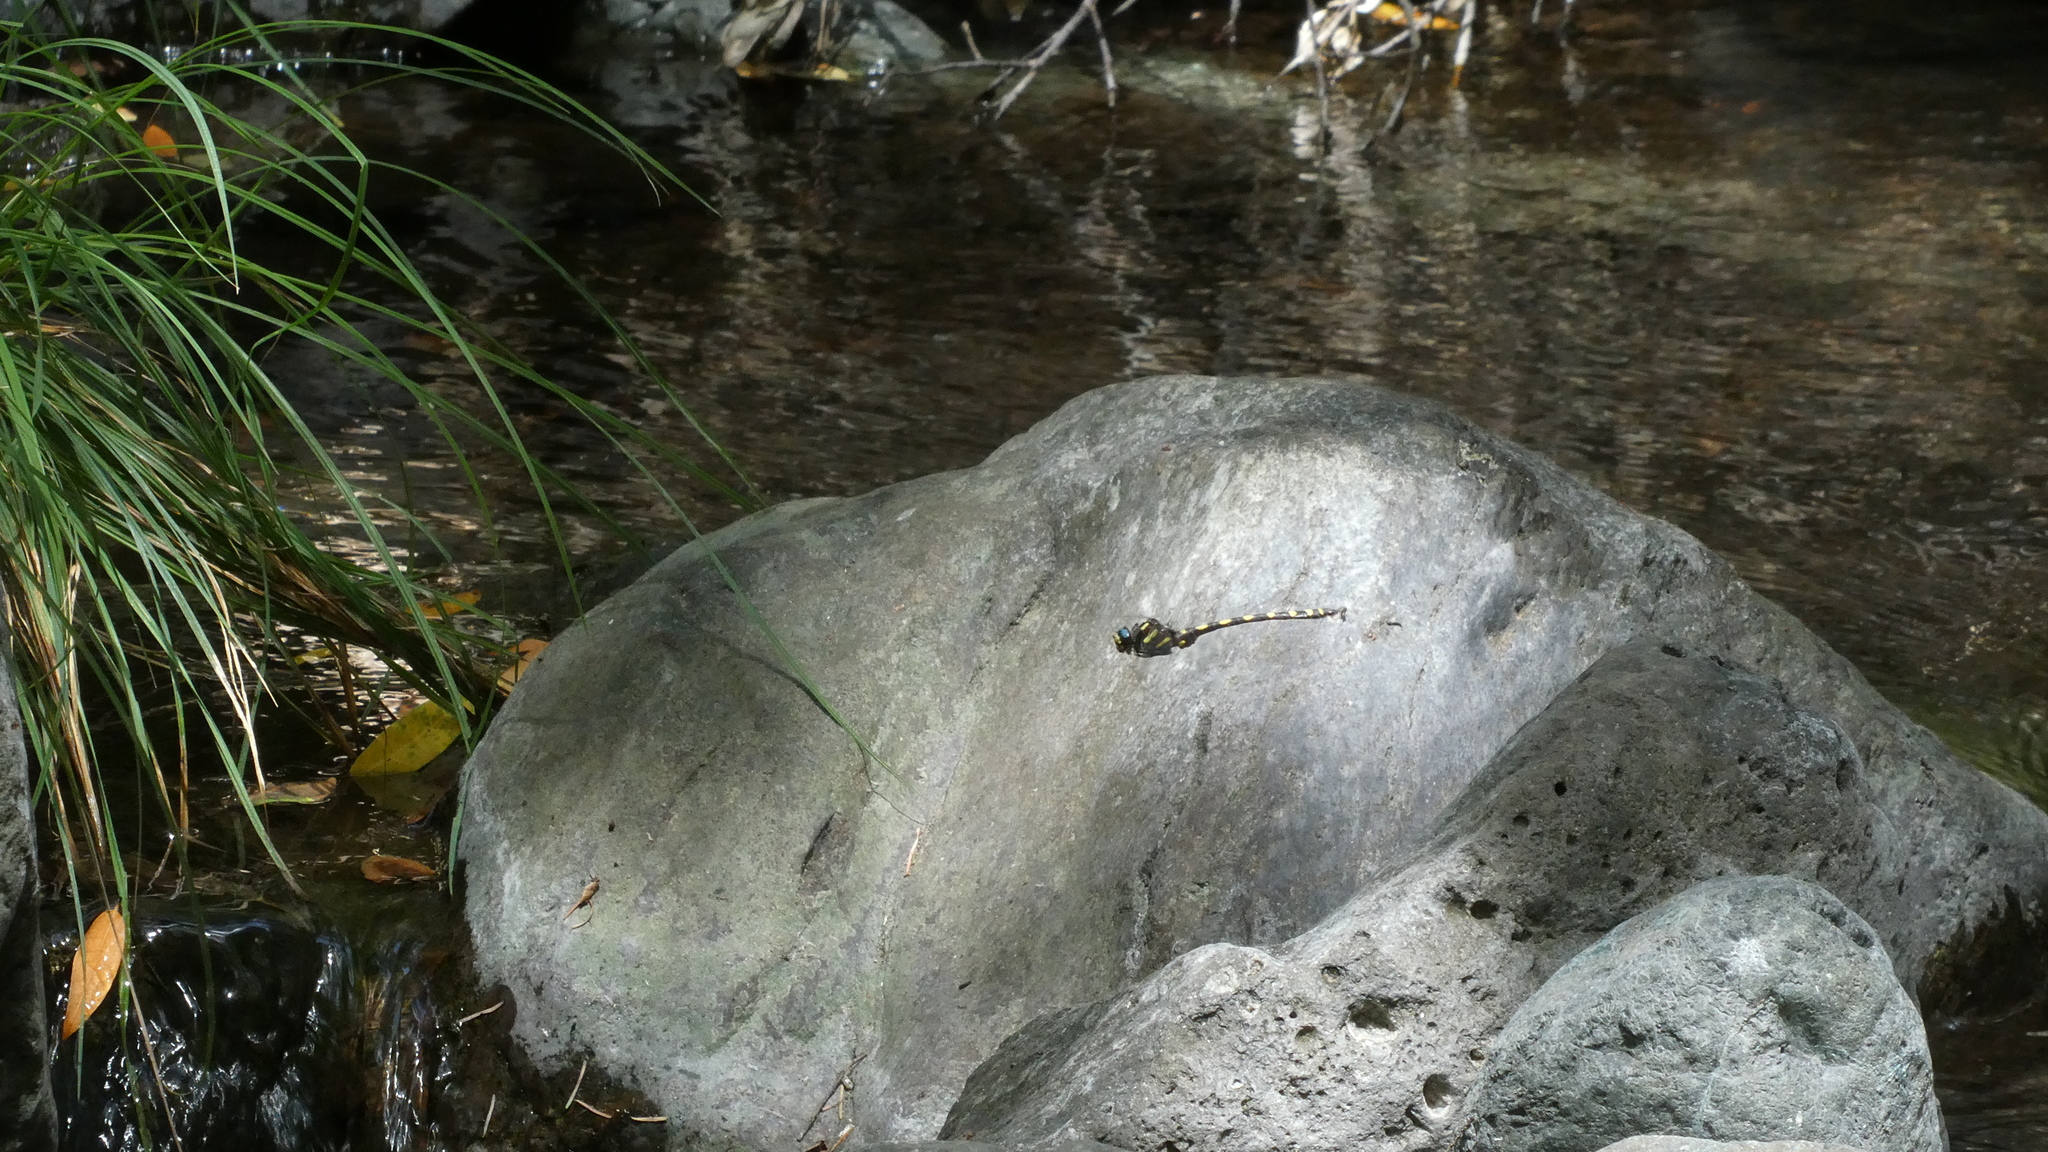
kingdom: Animalia
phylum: Arthropoda
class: Insecta
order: Odonata
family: Cordulegastridae
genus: Cordulegaster
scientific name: Cordulegaster dorsalis
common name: Pacific spiketail
